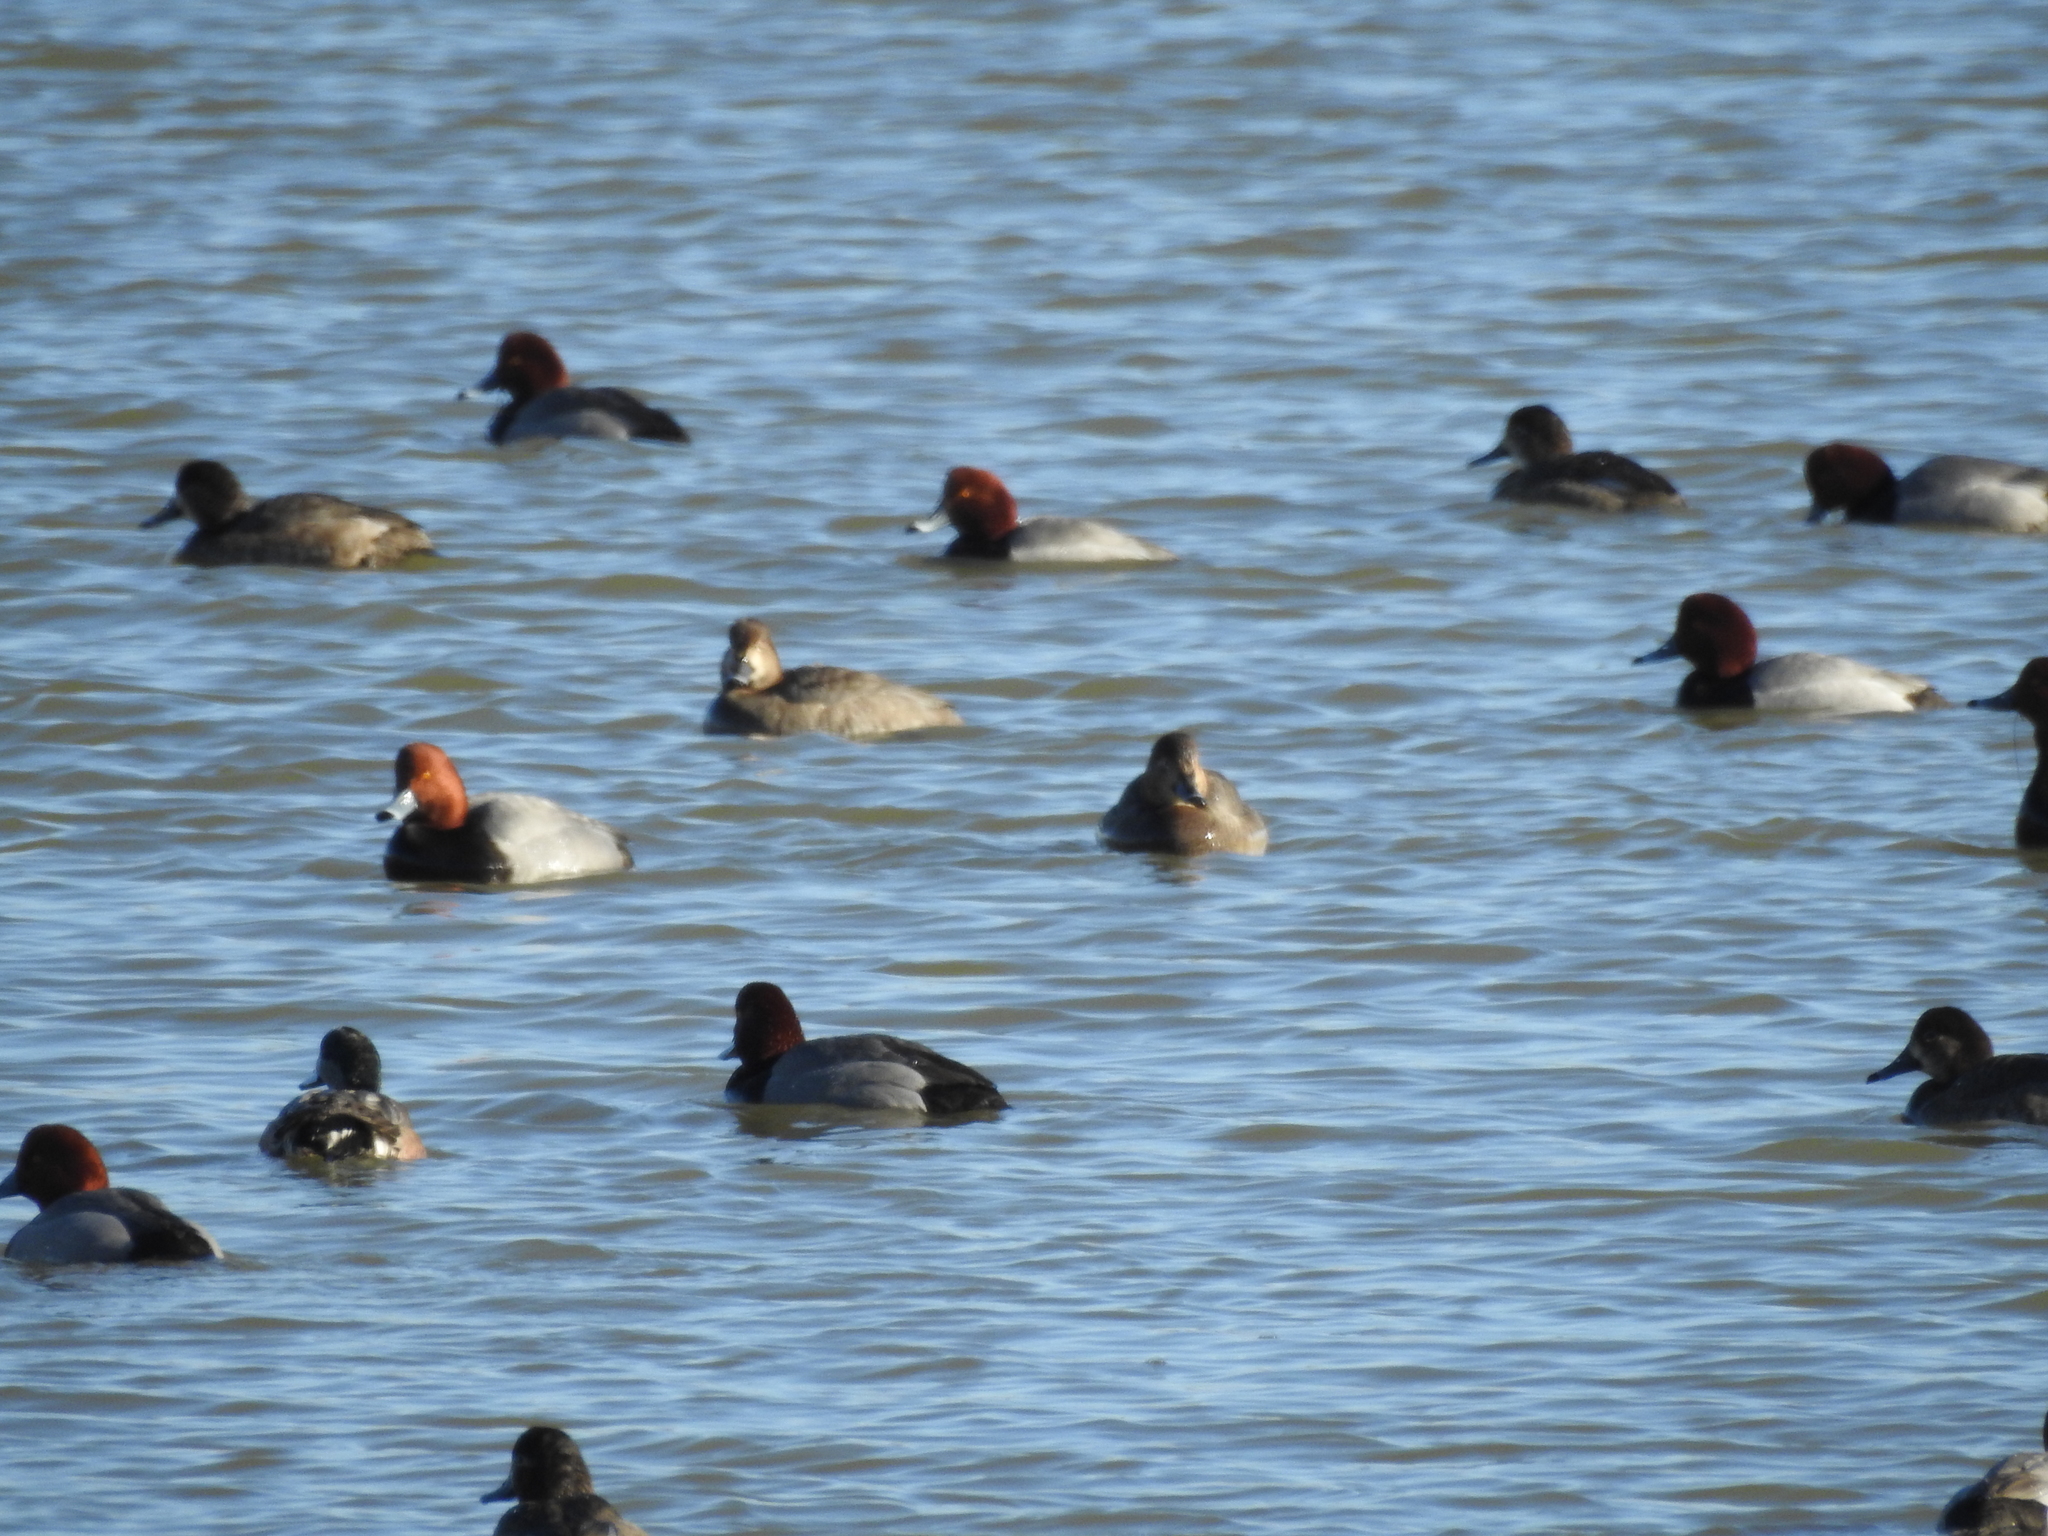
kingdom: Animalia
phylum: Chordata
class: Aves
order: Anseriformes
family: Anatidae
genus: Aythya
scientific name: Aythya americana
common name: Redhead
